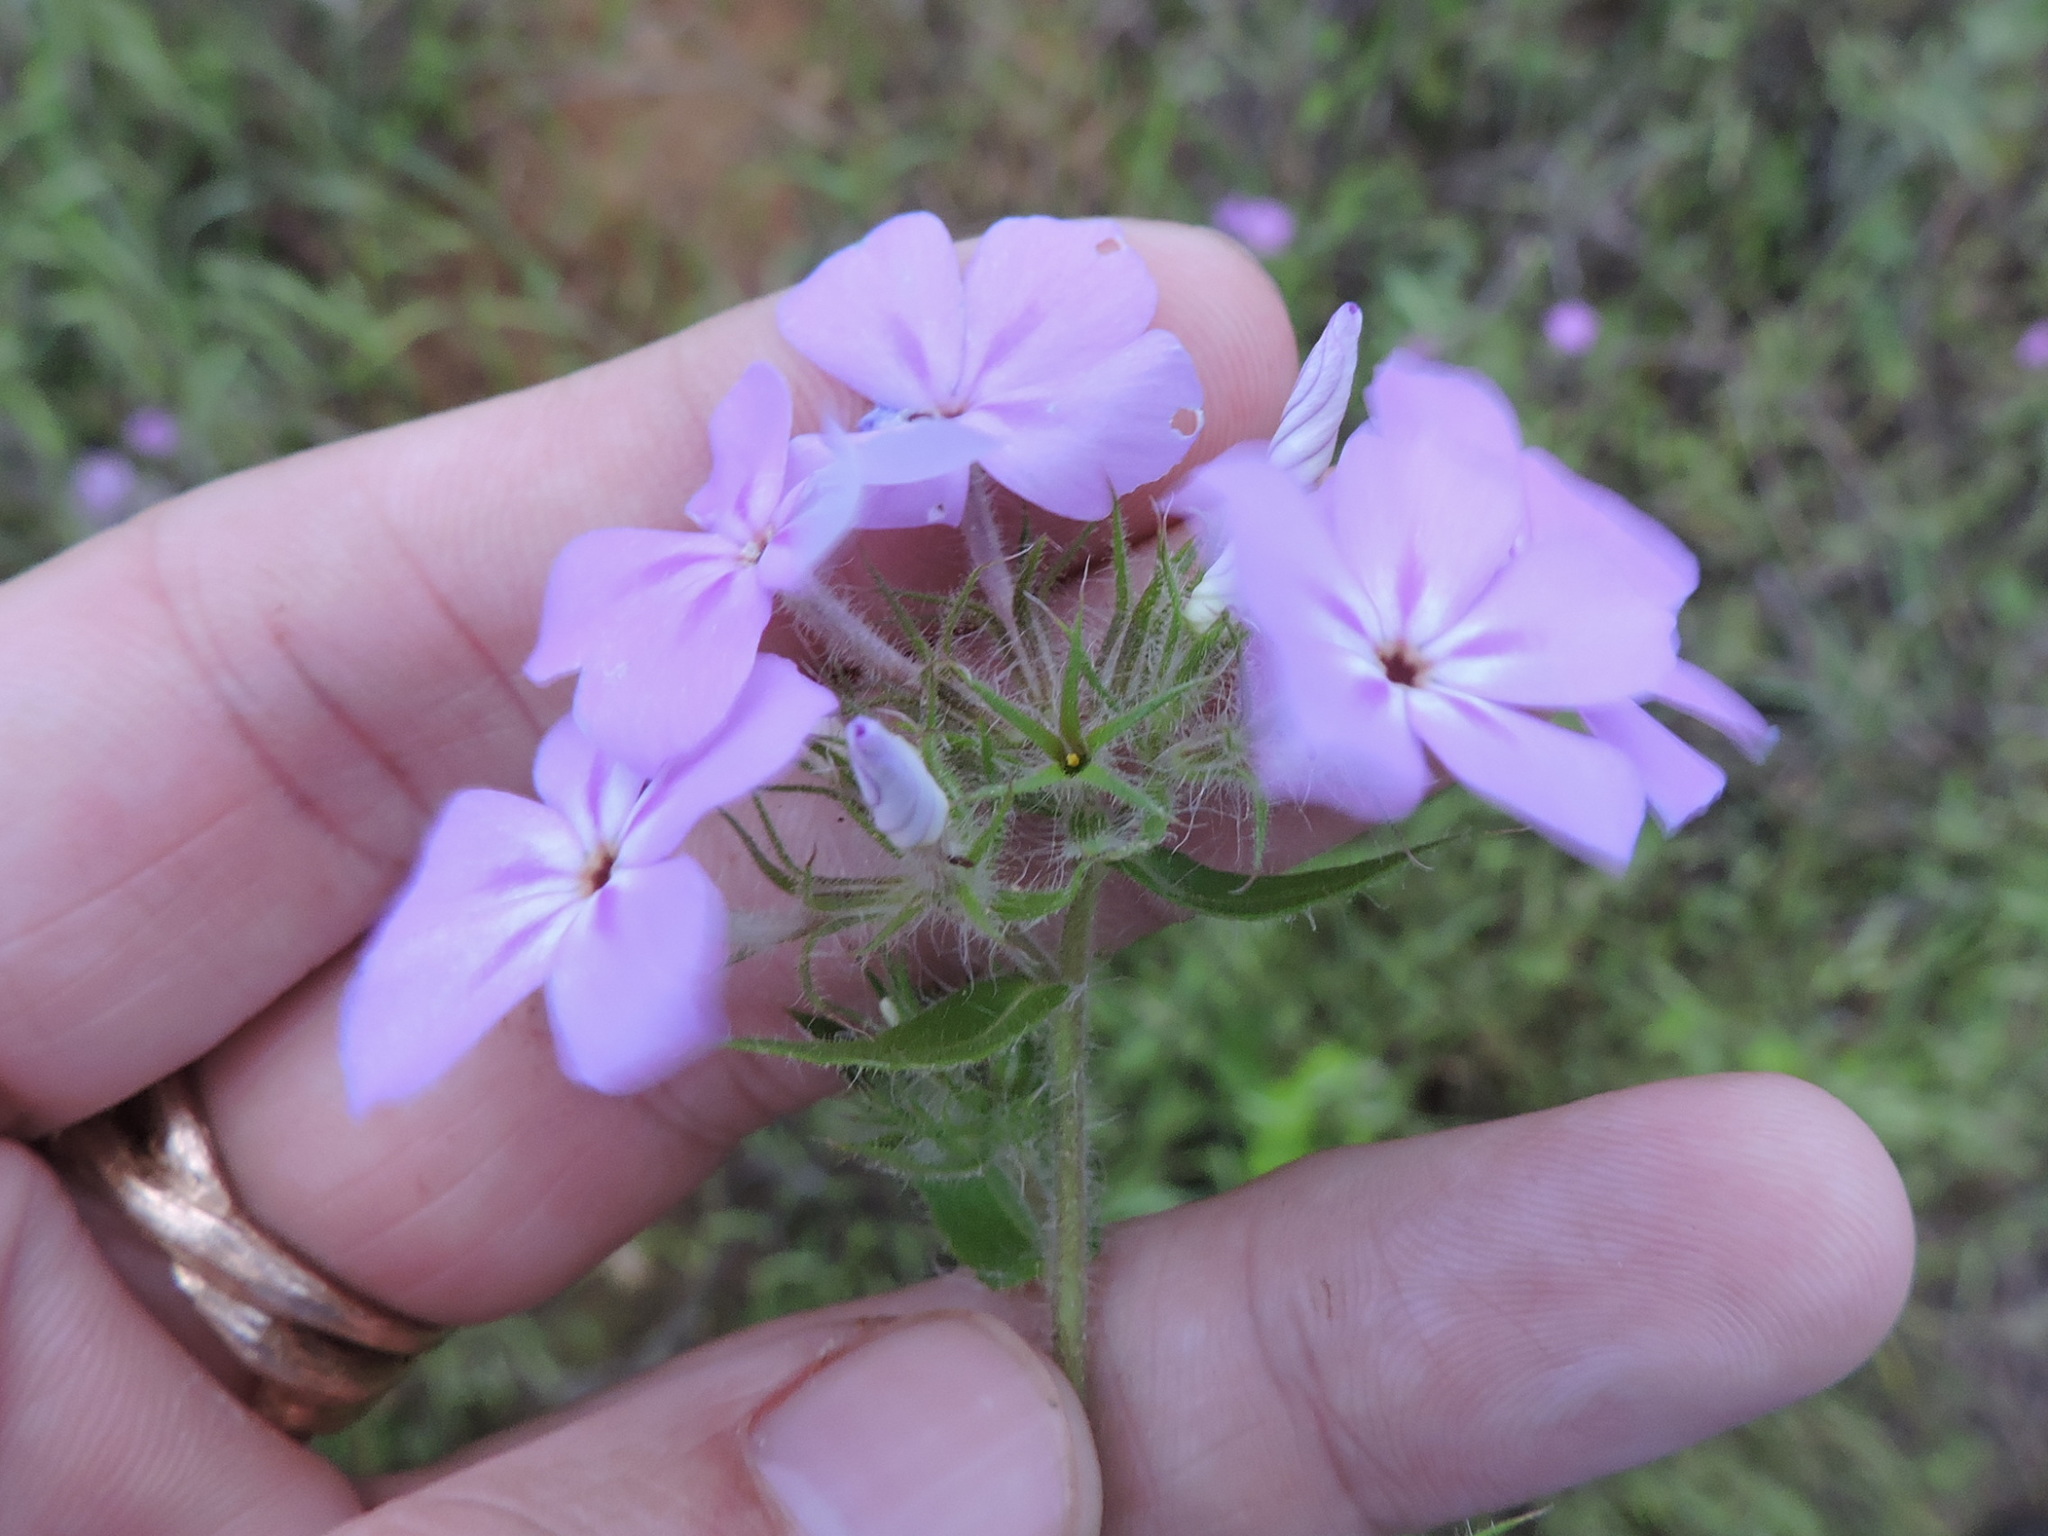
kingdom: Plantae
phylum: Tracheophyta
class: Magnoliopsida
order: Ericales
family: Polemoniaceae
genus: Phlox
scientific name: Phlox drummondii
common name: Drummond's phlox
